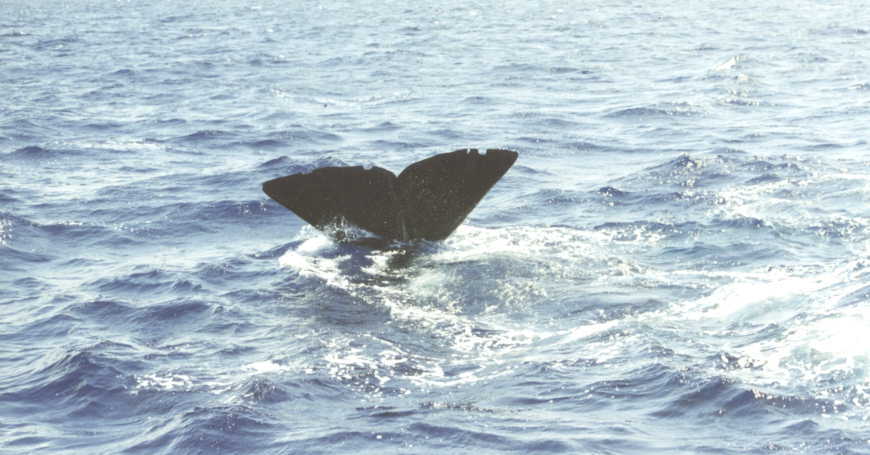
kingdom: Animalia
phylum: Chordata
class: Mammalia
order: Cetacea
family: Physeteridae
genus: Physeter
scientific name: Physeter macrocephalus
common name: Sperm whale
